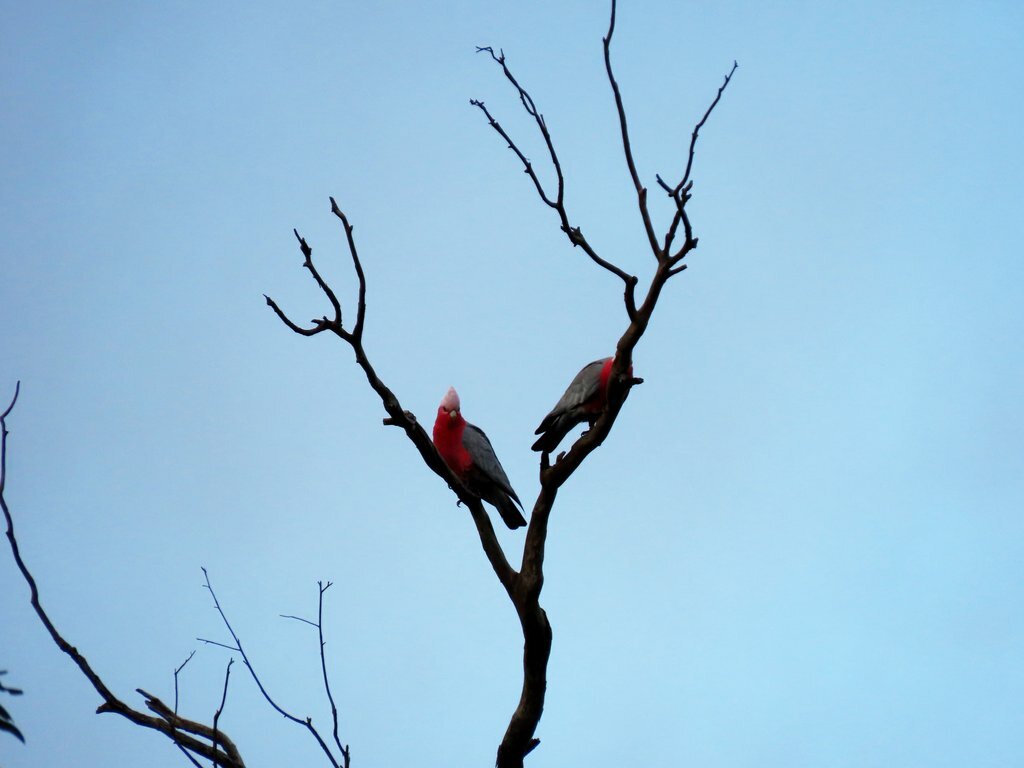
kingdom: Animalia
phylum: Chordata
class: Aves
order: Psittaciformes
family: Psittacidae
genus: Eolophus
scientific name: Eolophus roseicapilla
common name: Galah
